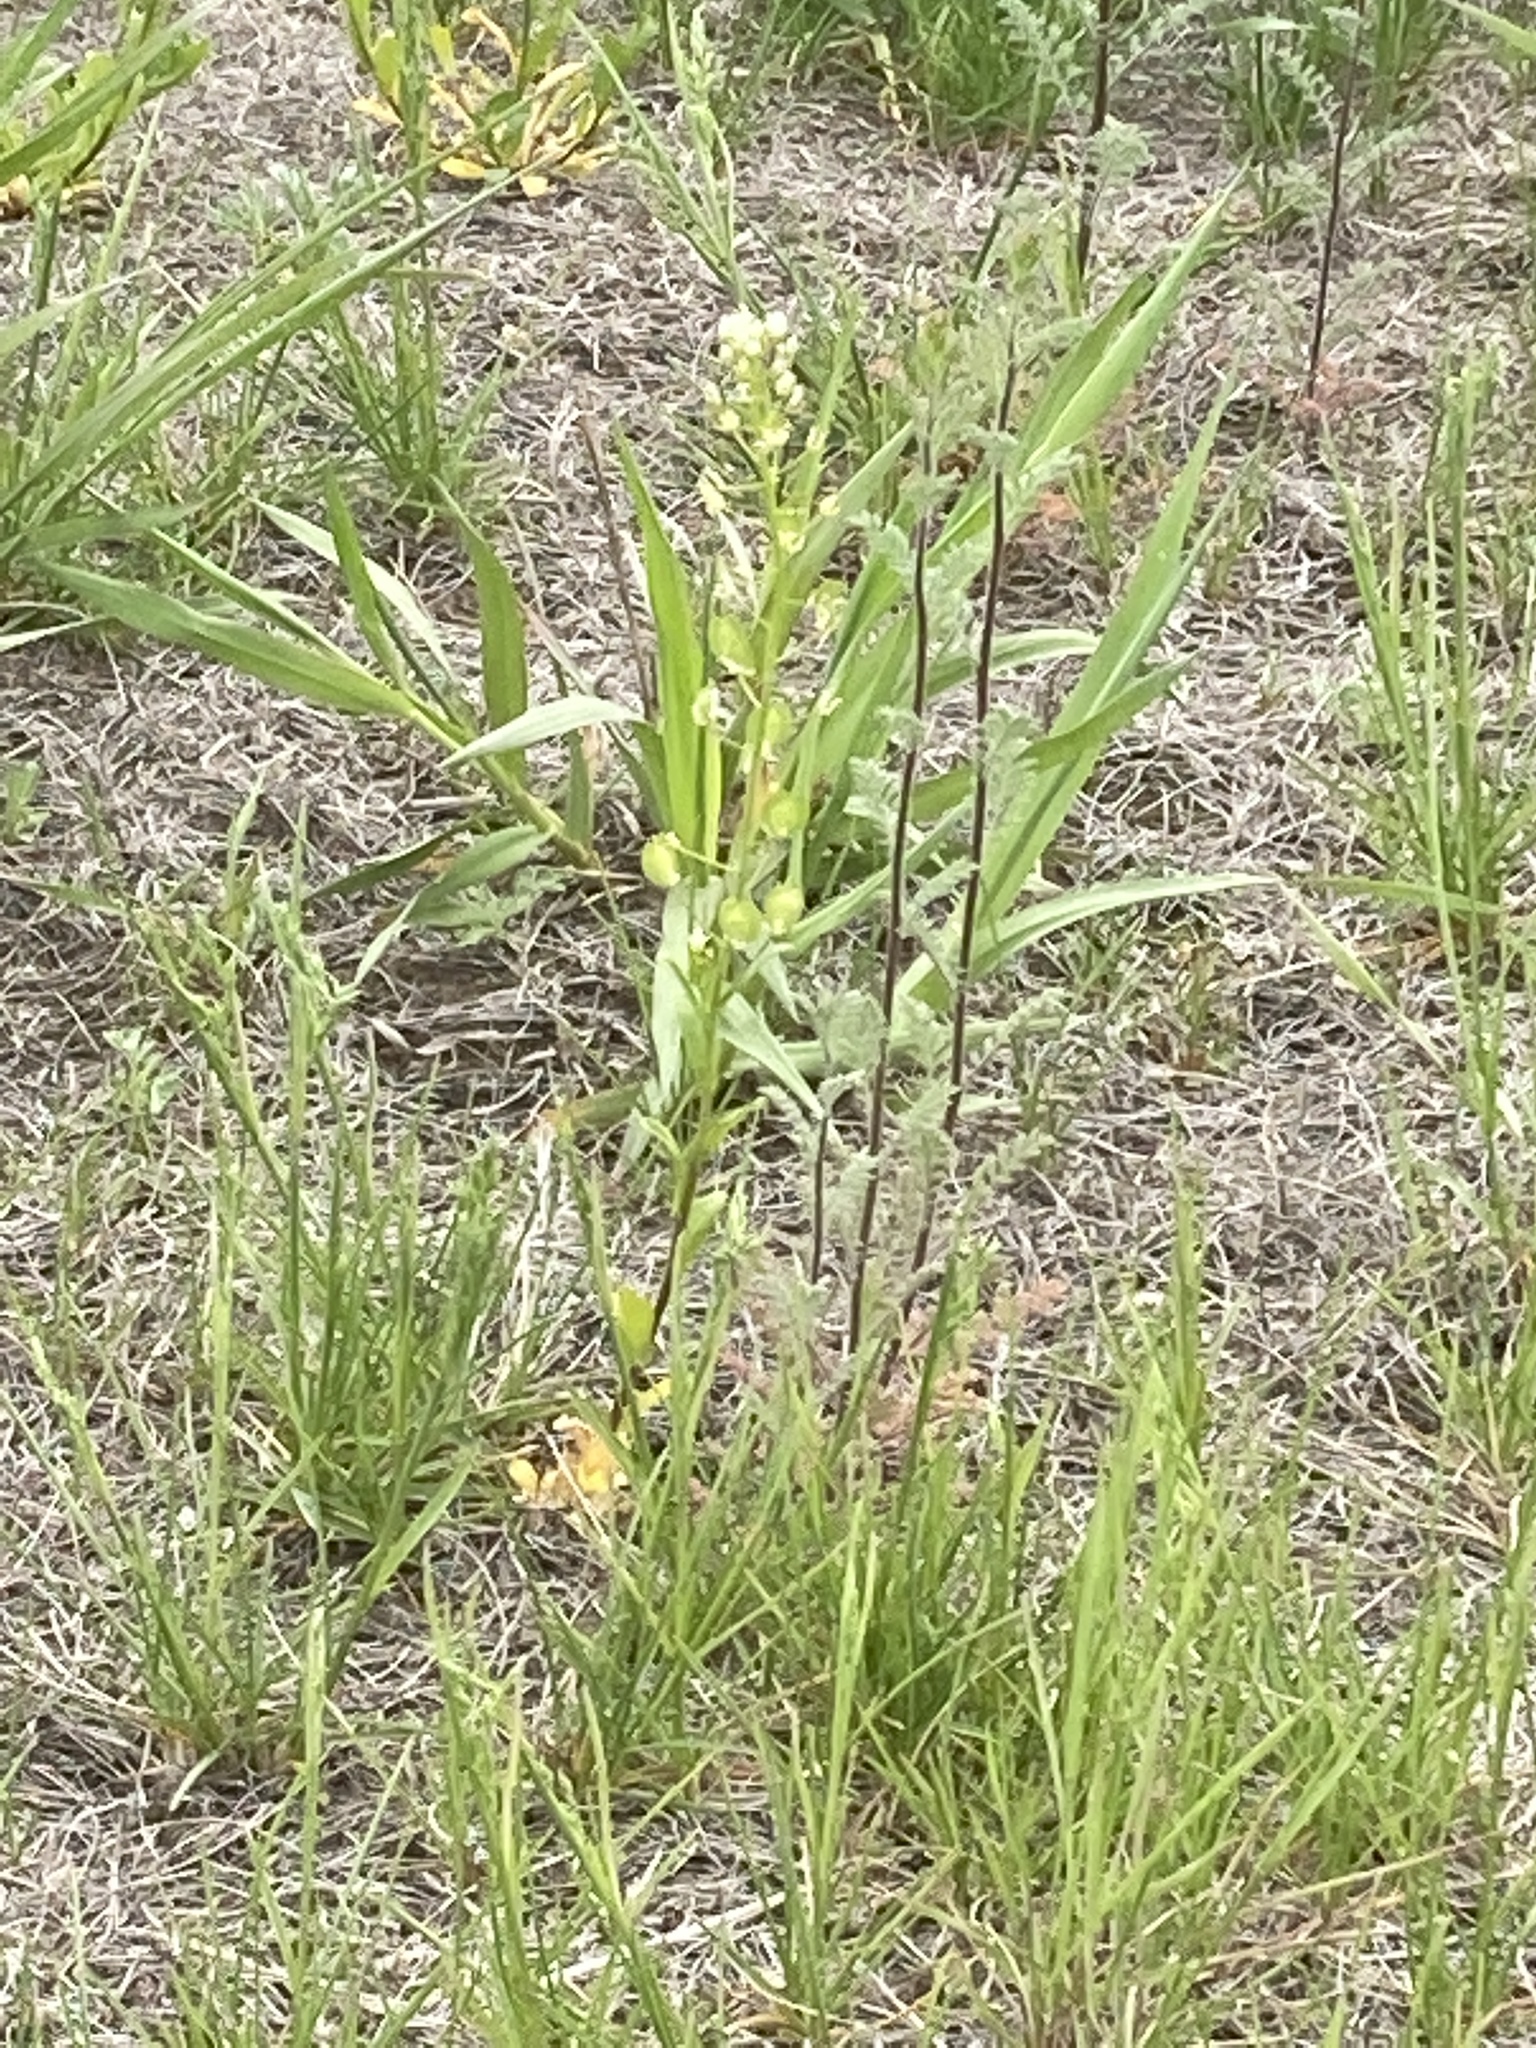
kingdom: Plantae
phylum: Tracheophyta
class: Magnoliopsida
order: Brassicales
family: Brassicaceae
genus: Thlaspi
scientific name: Thlaspi arvense
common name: Field pennycress
